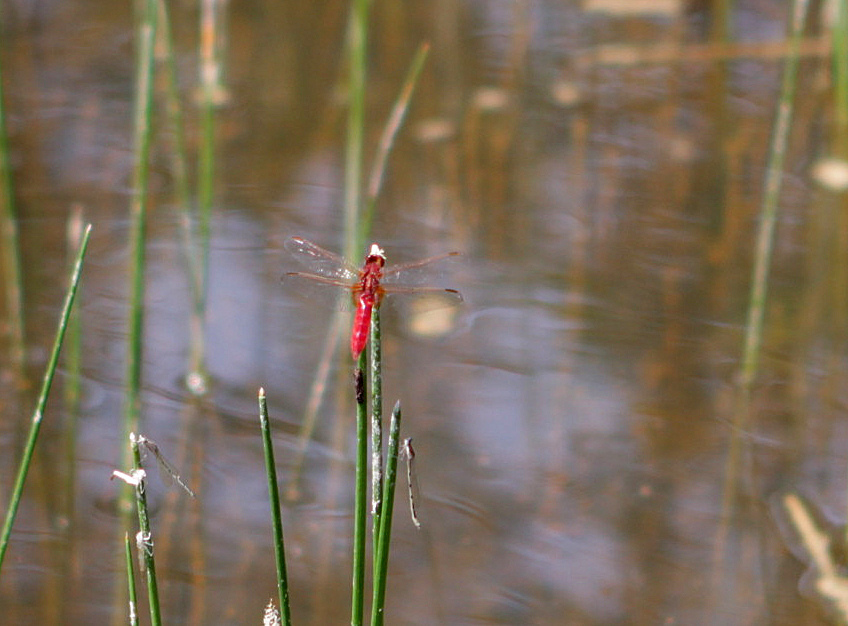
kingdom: Animalia
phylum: Arthropoda
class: Insecta
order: Odonata
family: Libellulidae
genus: Crocothemis
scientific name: Crocothemis erythraea
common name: Scarlet dragonfly
